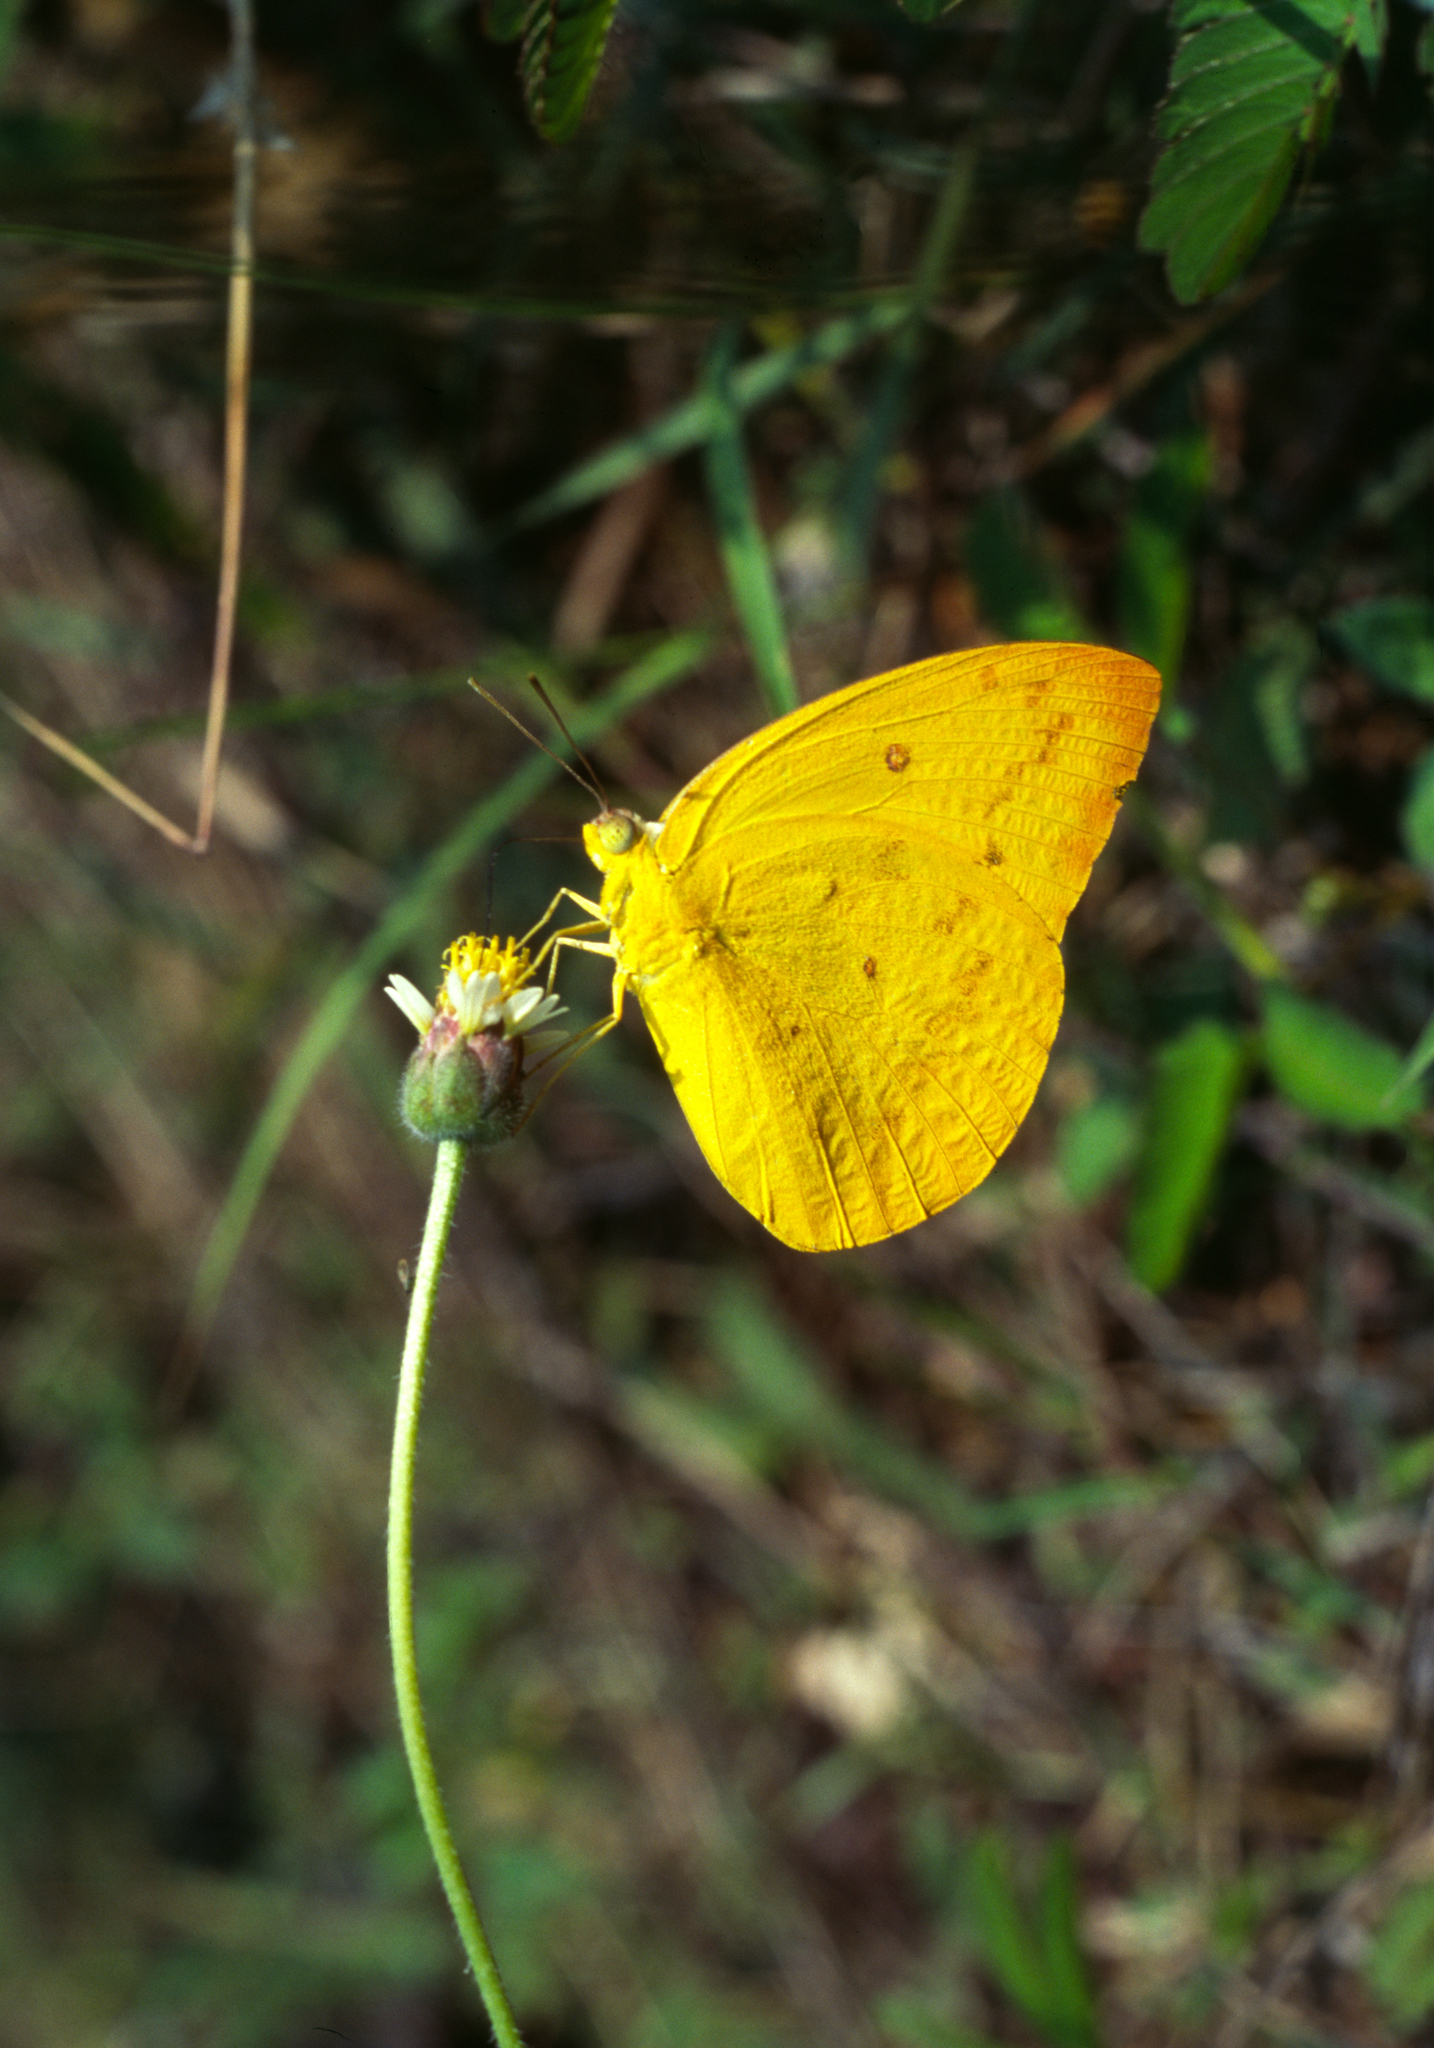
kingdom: Animalia
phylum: Arthropoda
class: Insecta
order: Lepidoptera
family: Pieridae
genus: Catopsilia
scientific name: Catopsilia scylla
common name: Orange emigrant
